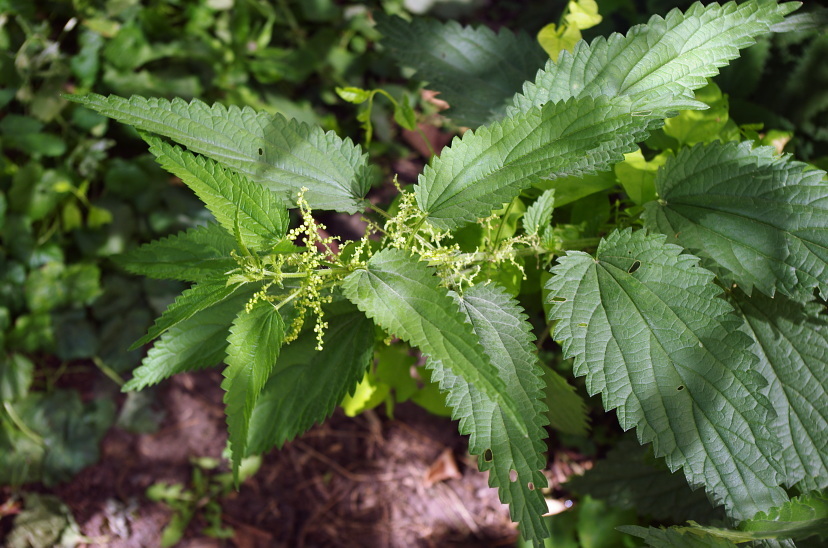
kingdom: Plantae
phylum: Tracheophyta
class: Magnoliopsida
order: Rosales
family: Urticaceae
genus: Urtica
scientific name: Urtica dioica
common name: Common nettle
